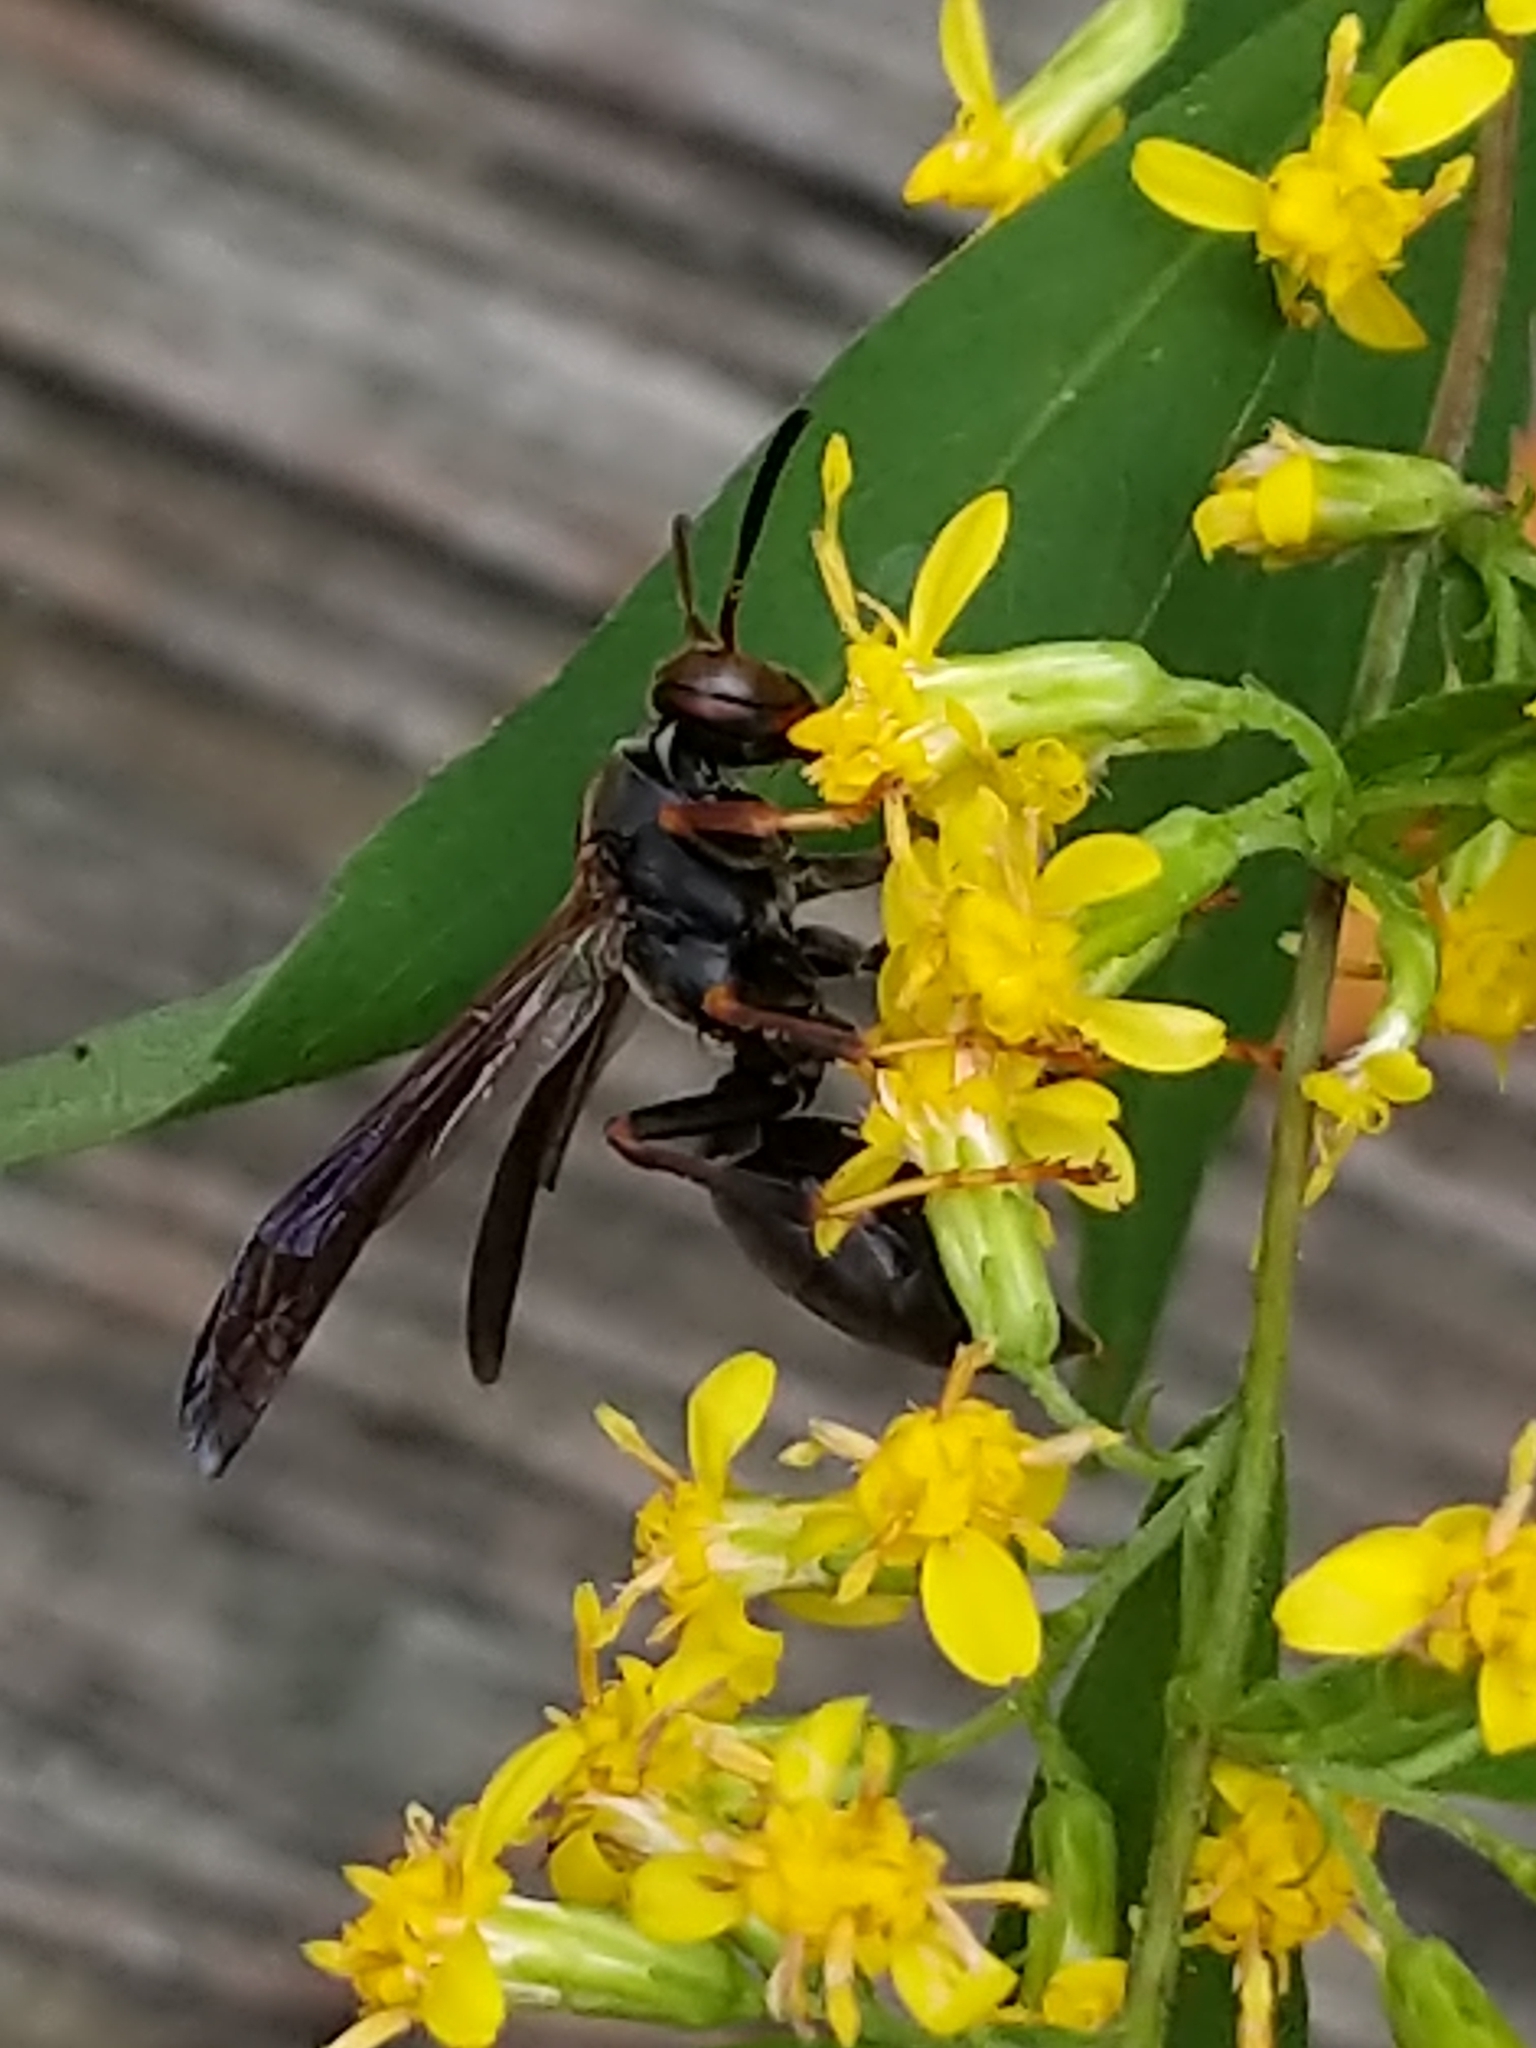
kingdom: Animalia
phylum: Arthropoda
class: Insecta
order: Hymenoptera
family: Vespidae
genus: Fuscopolistes
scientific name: Fuscopolistes
